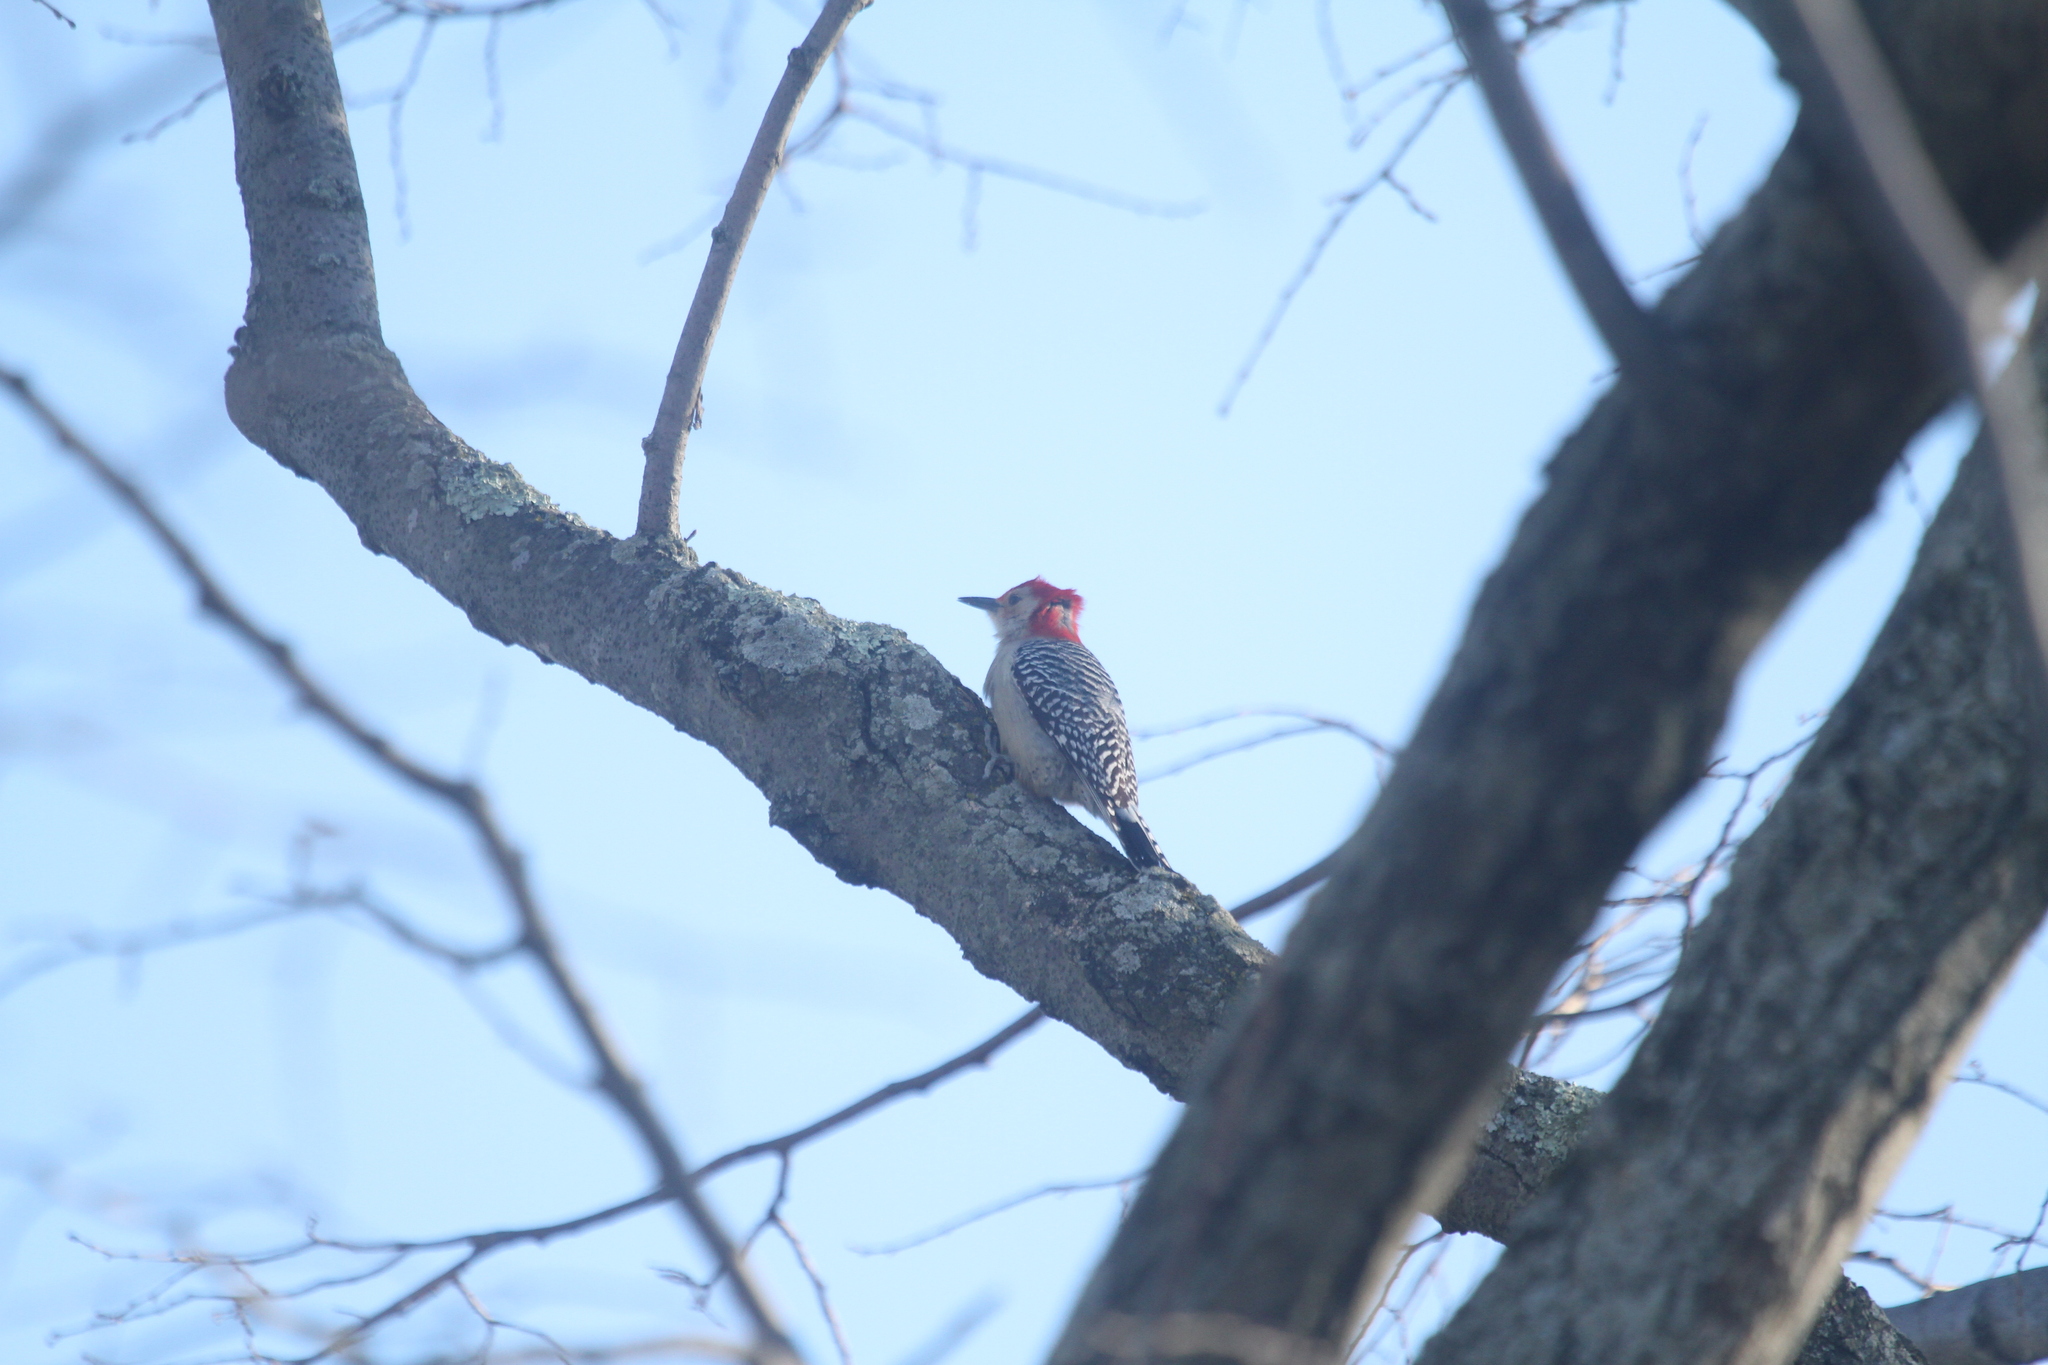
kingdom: Animalia
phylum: Chordata
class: Aves
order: Piciformes
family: Picidae
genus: Melanerpes
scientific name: Melanerpes carolinus
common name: Red-bellied woodpecker
